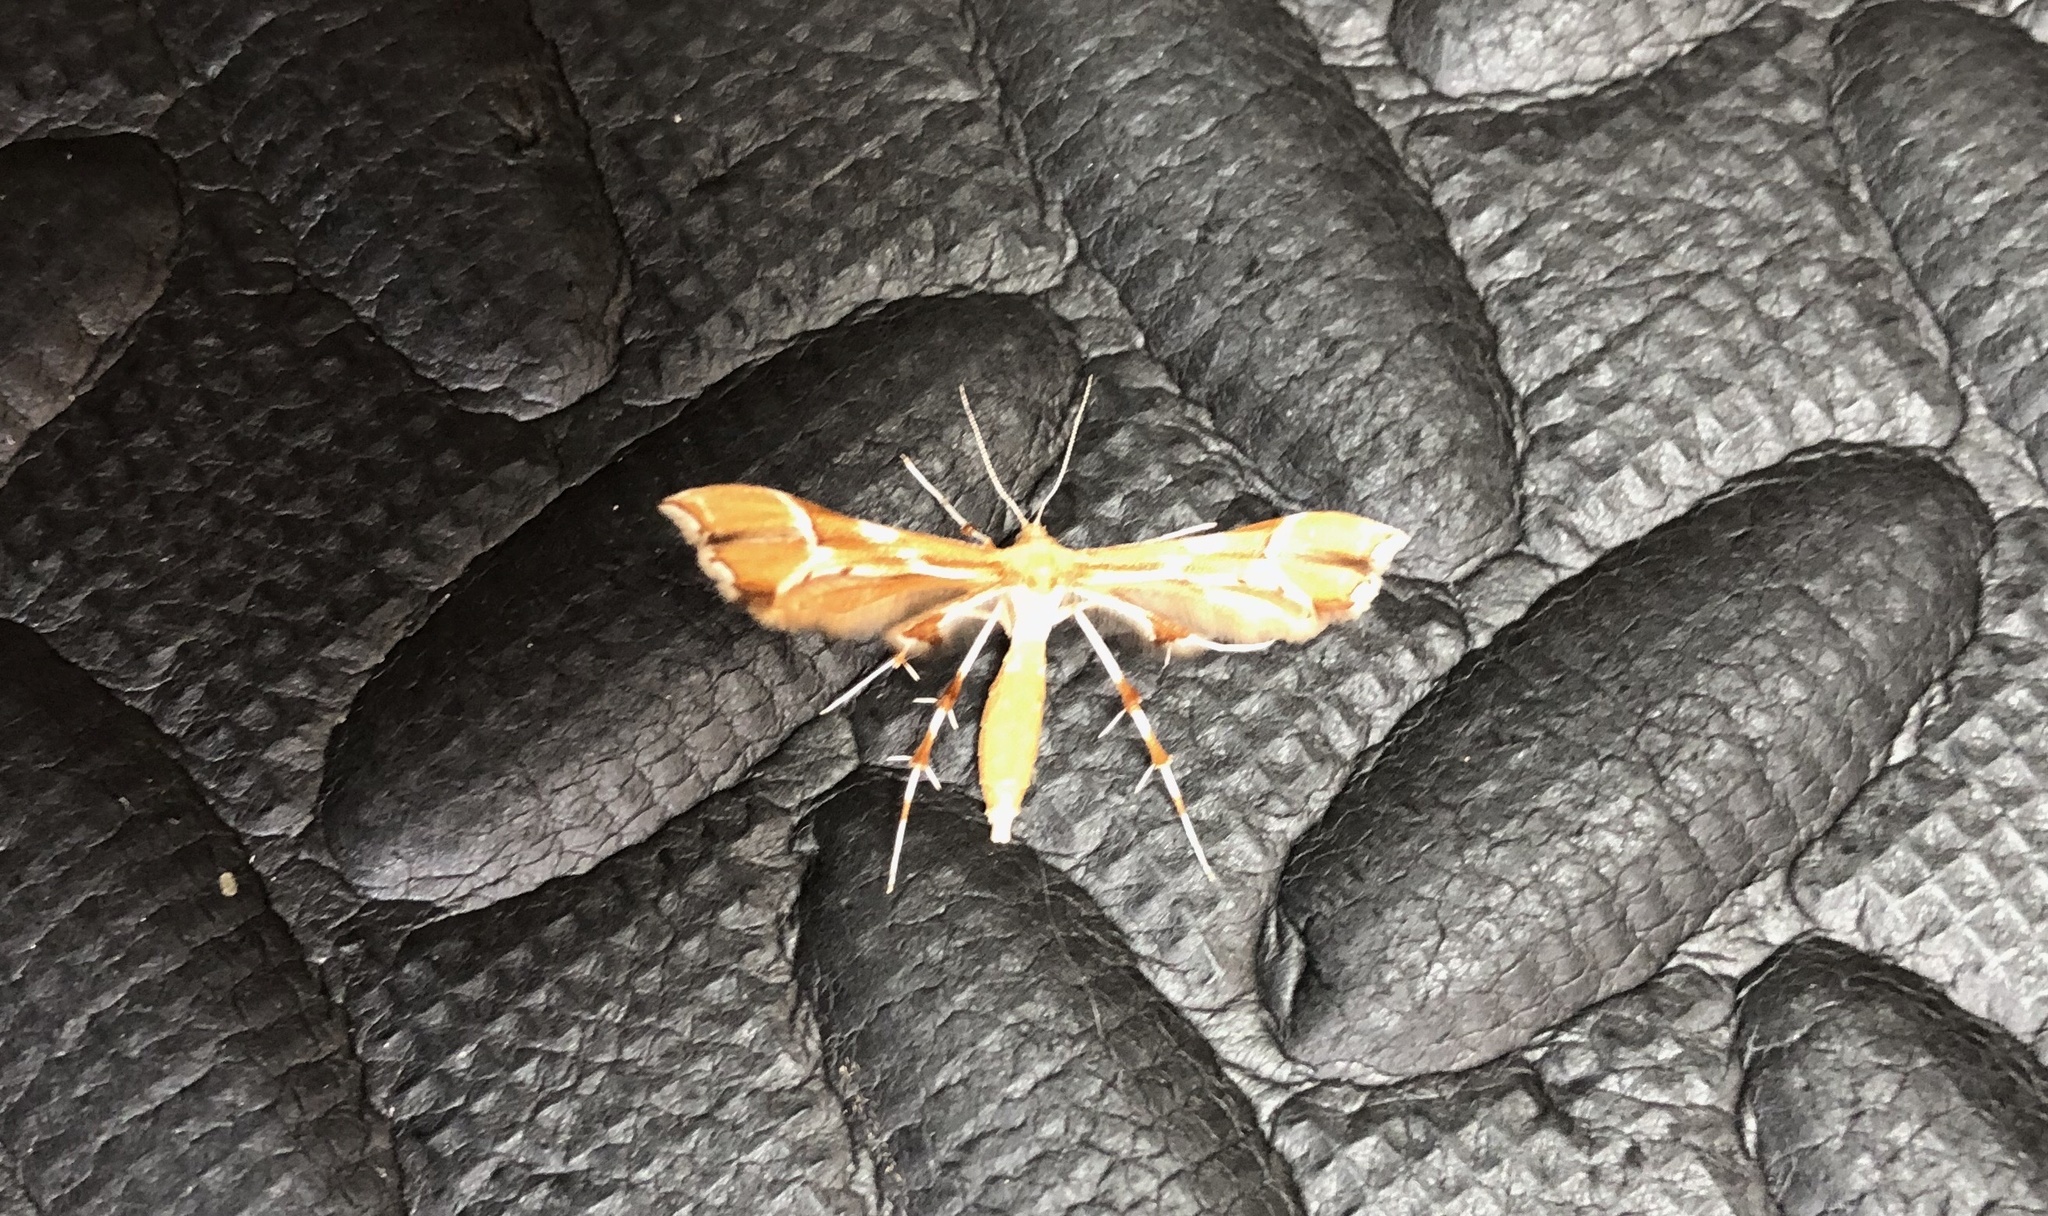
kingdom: Animalia
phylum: Arthropoda
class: Insecta
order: Lepidoptera
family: Pterophoridae
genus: Cnaemidophorus
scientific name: Cnaemidophorus rhododactyla
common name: Rose plume
